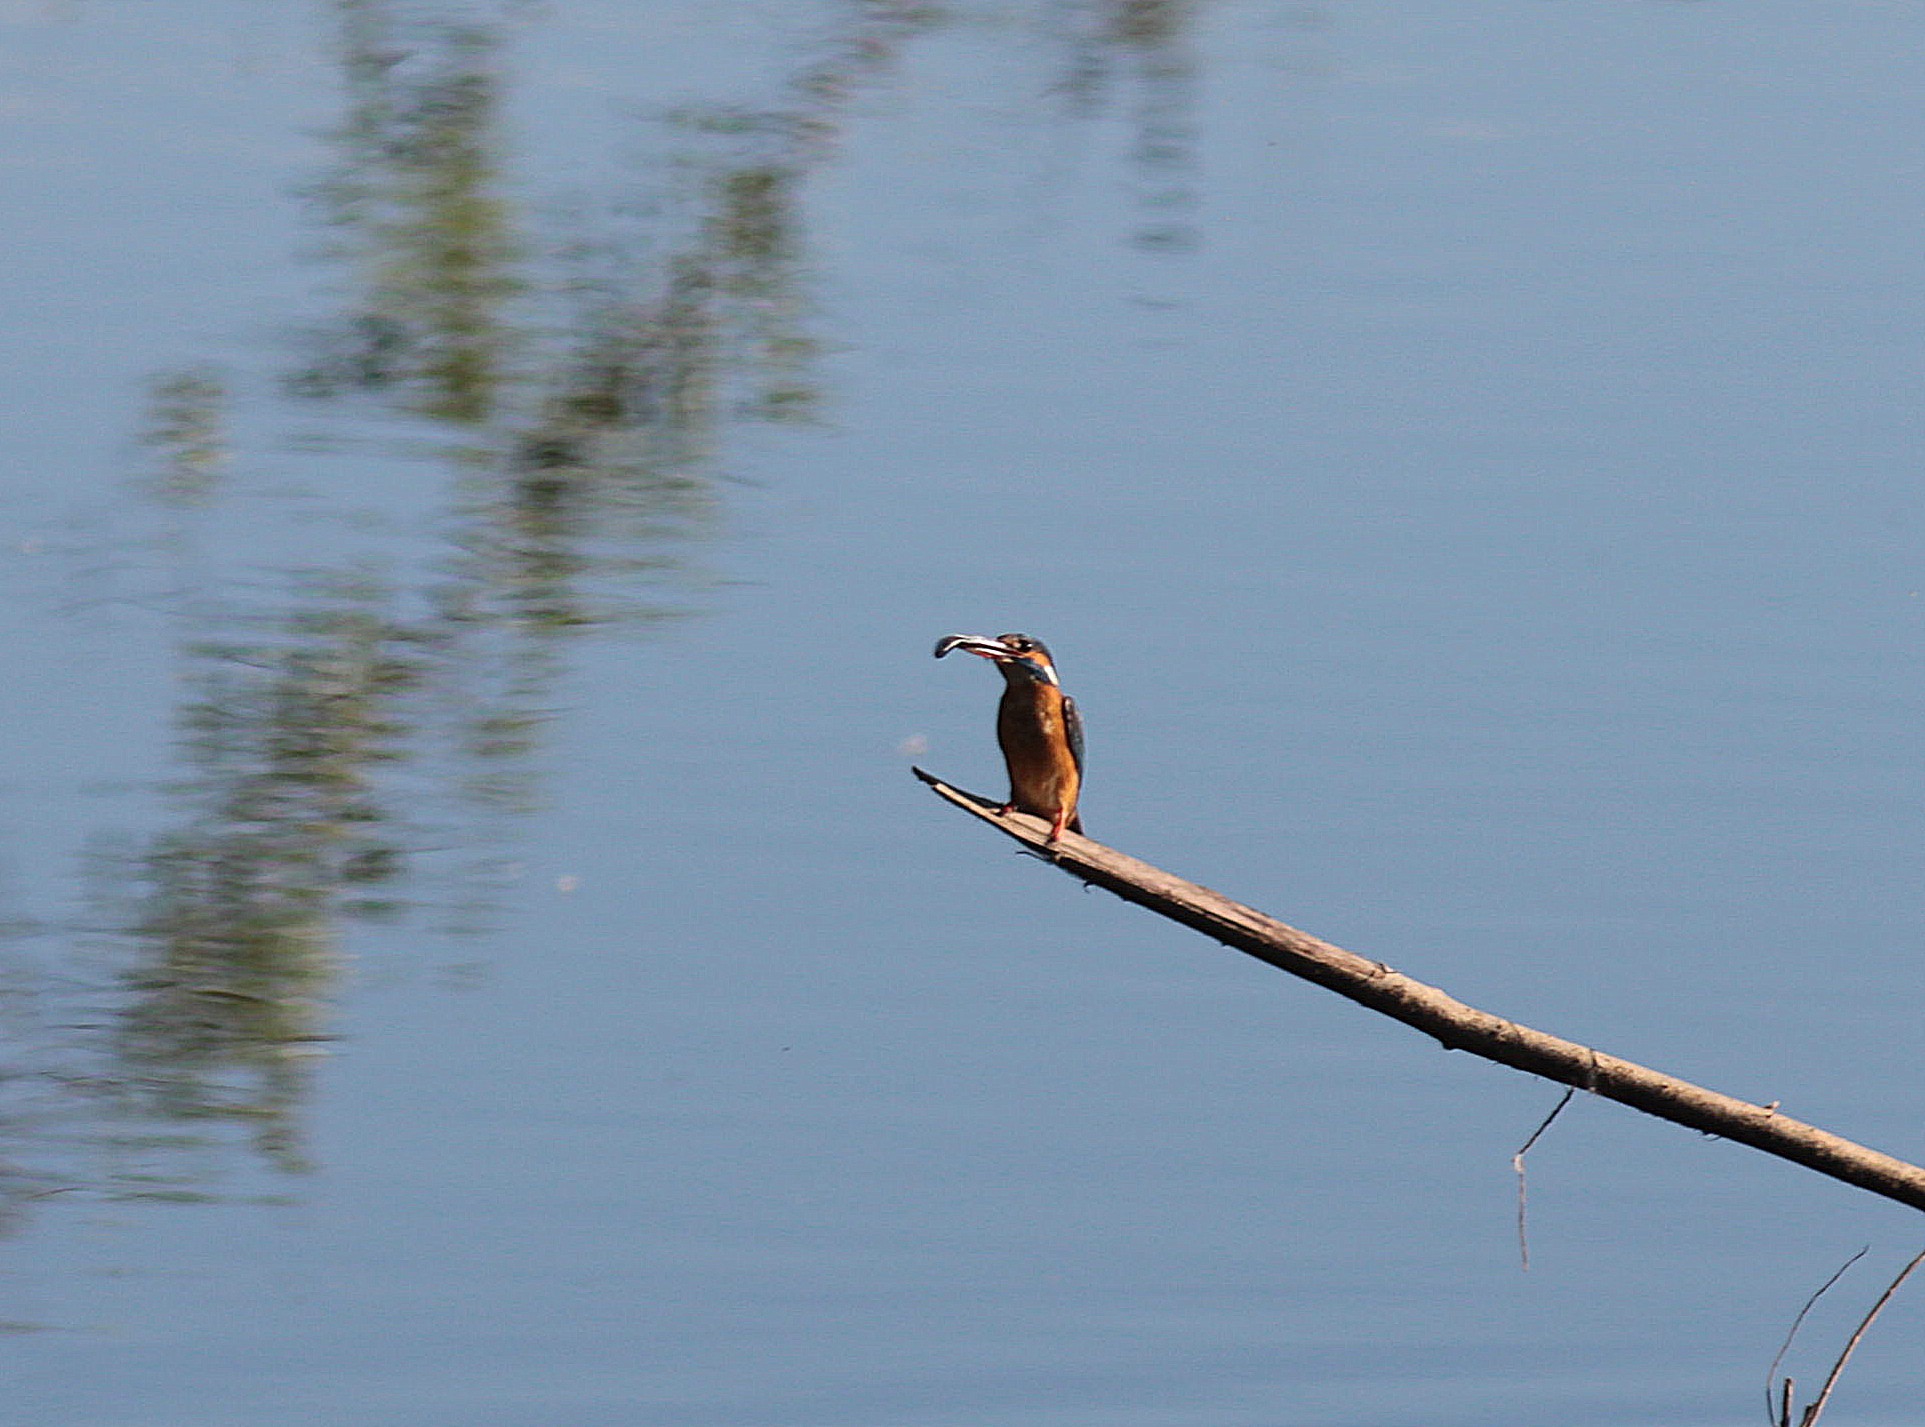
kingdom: Animalia
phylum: Chordata
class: Aves
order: Coraciiformes
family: Alcedinidae
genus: Alcedo
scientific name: Alcedo atthis
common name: Common kingfisher
